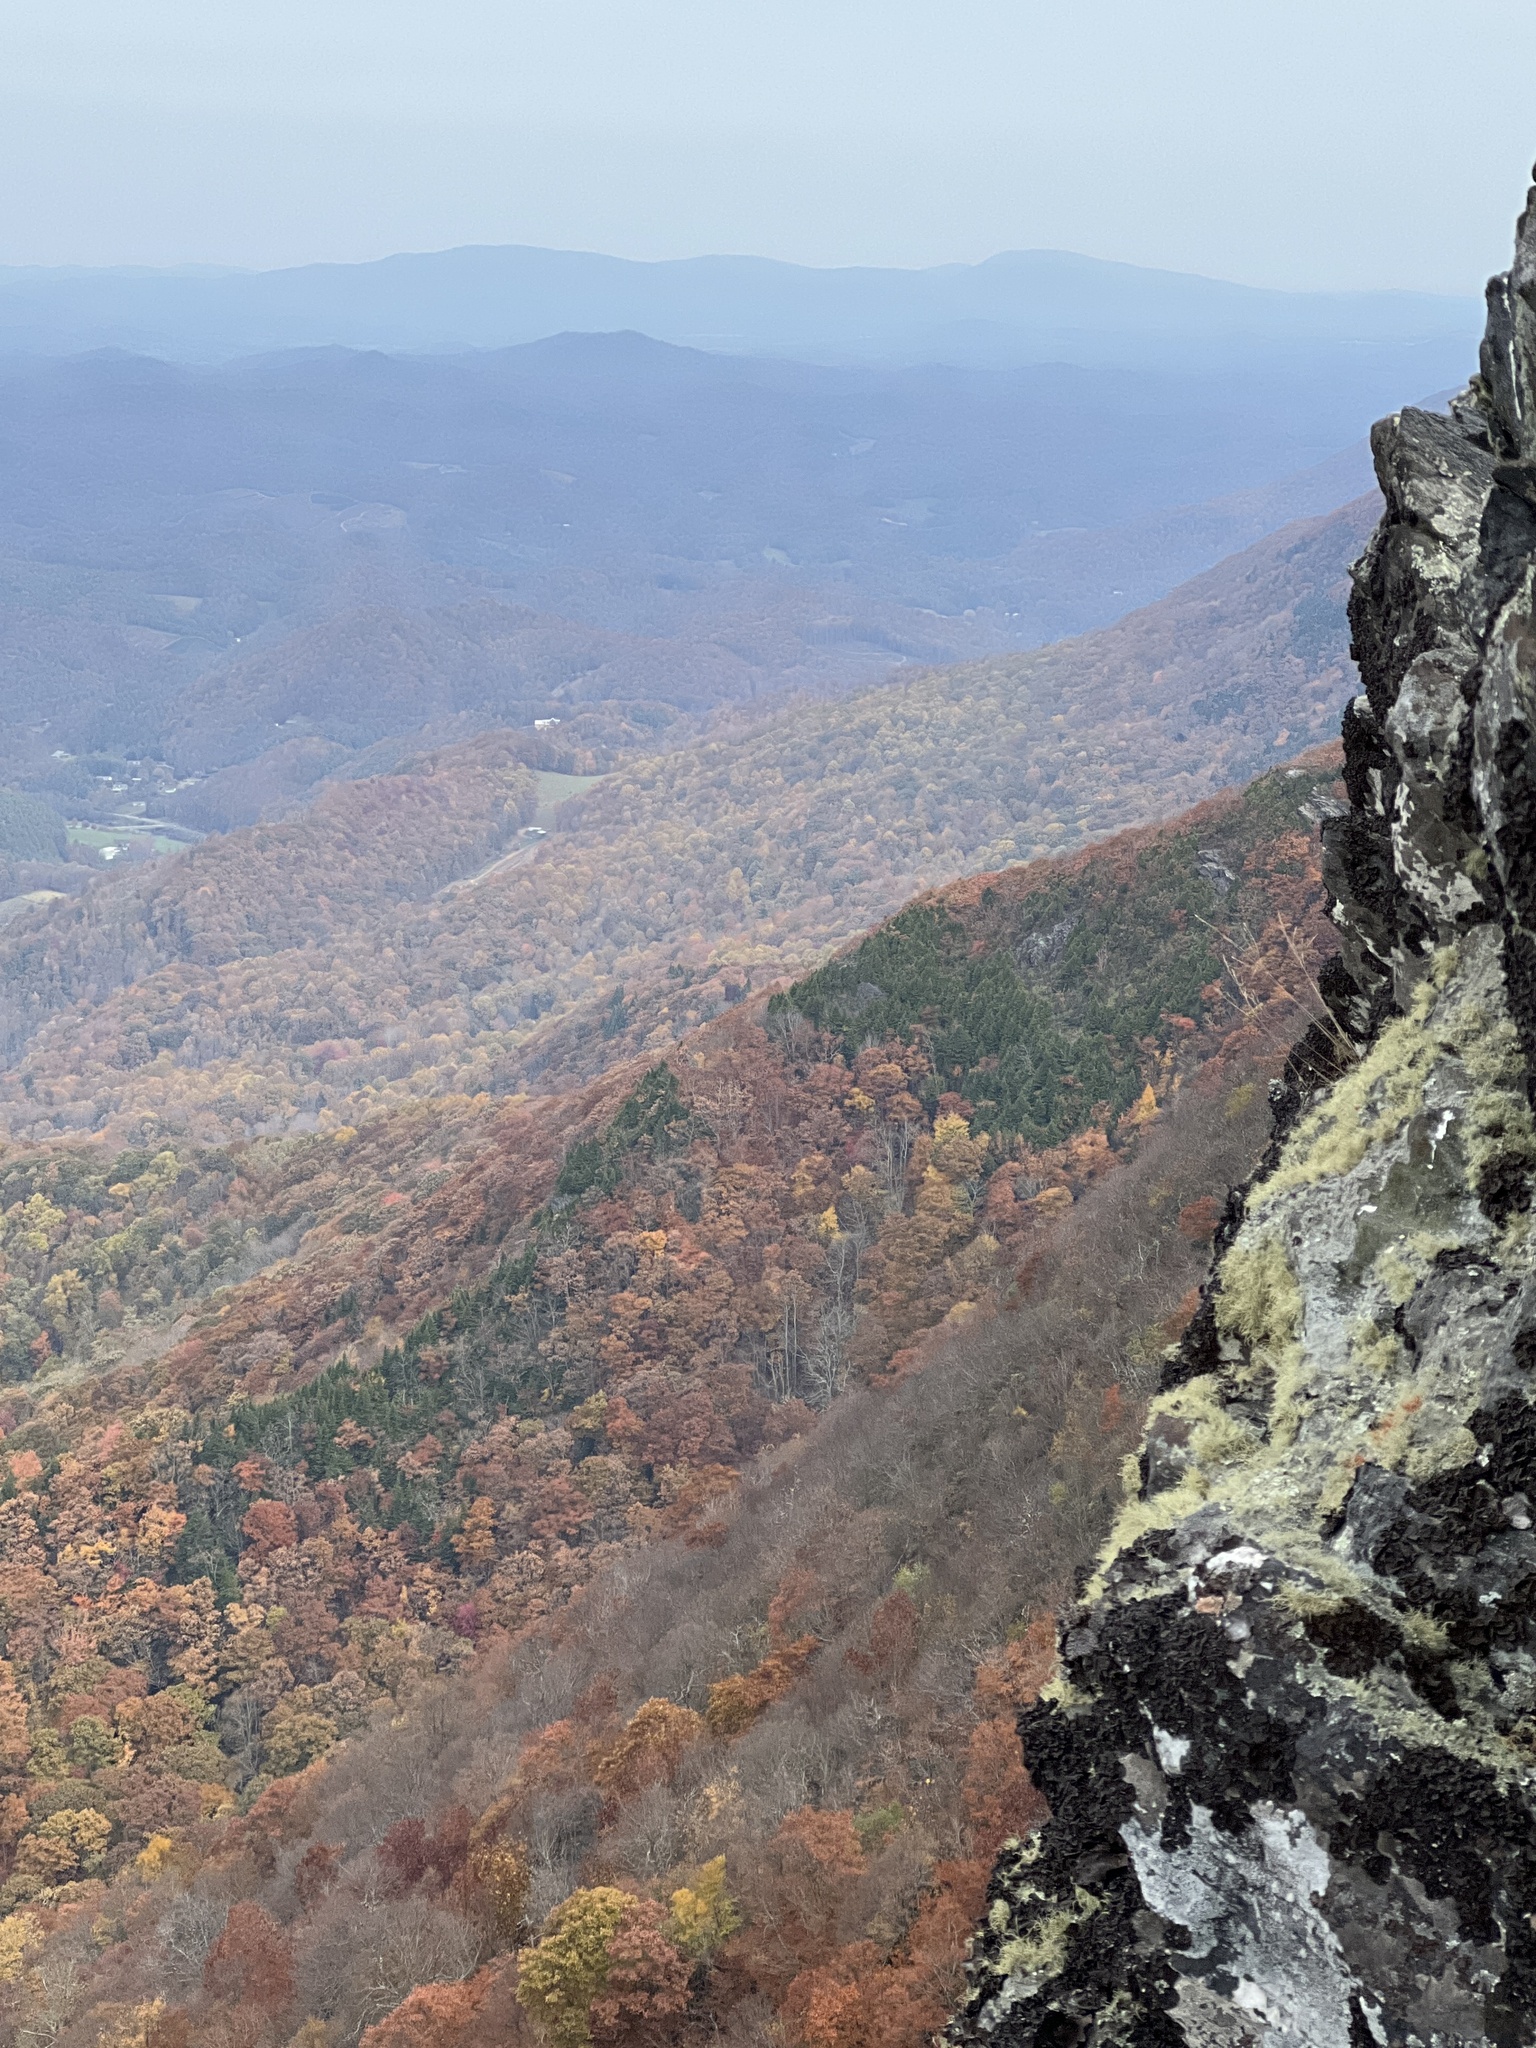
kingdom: Plantae
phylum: Tracheophyta
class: Pinopsida
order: Pinales
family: Pinaceae
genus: Tsuga
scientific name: Tsuga caroliniana
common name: Carolina hemlock
